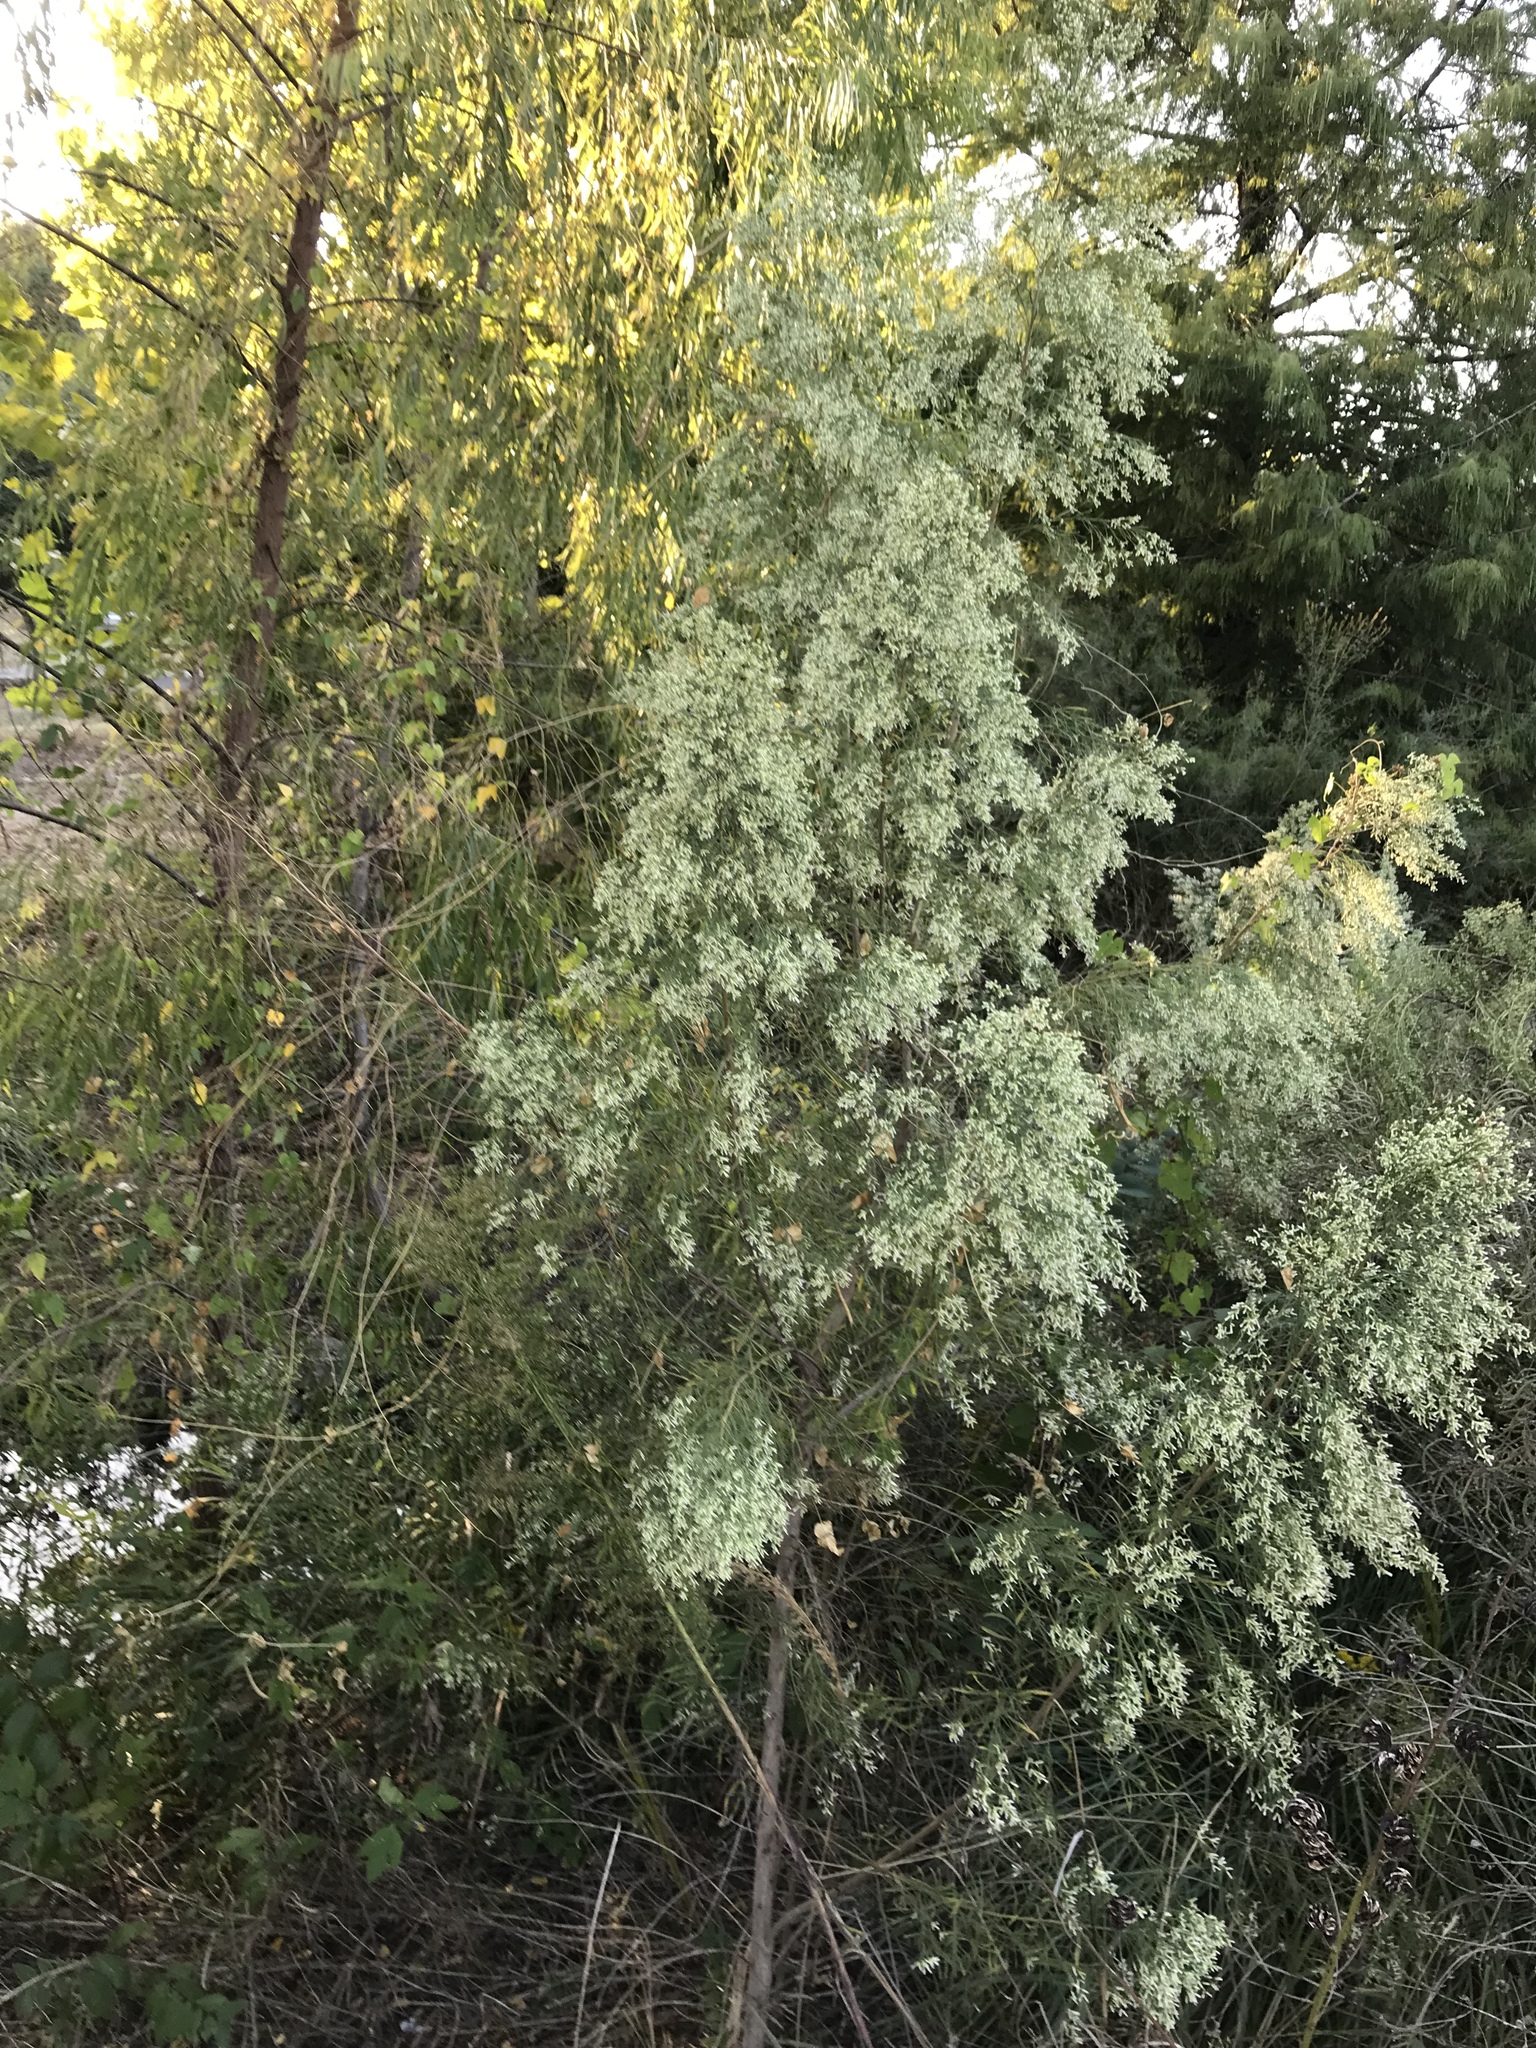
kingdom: Plantae
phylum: Tracheophyta
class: Magnoliopsida
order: Asterales
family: Asteraceae
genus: Baccharis
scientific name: Baccharis neglecta
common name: Roosevelt-weed
